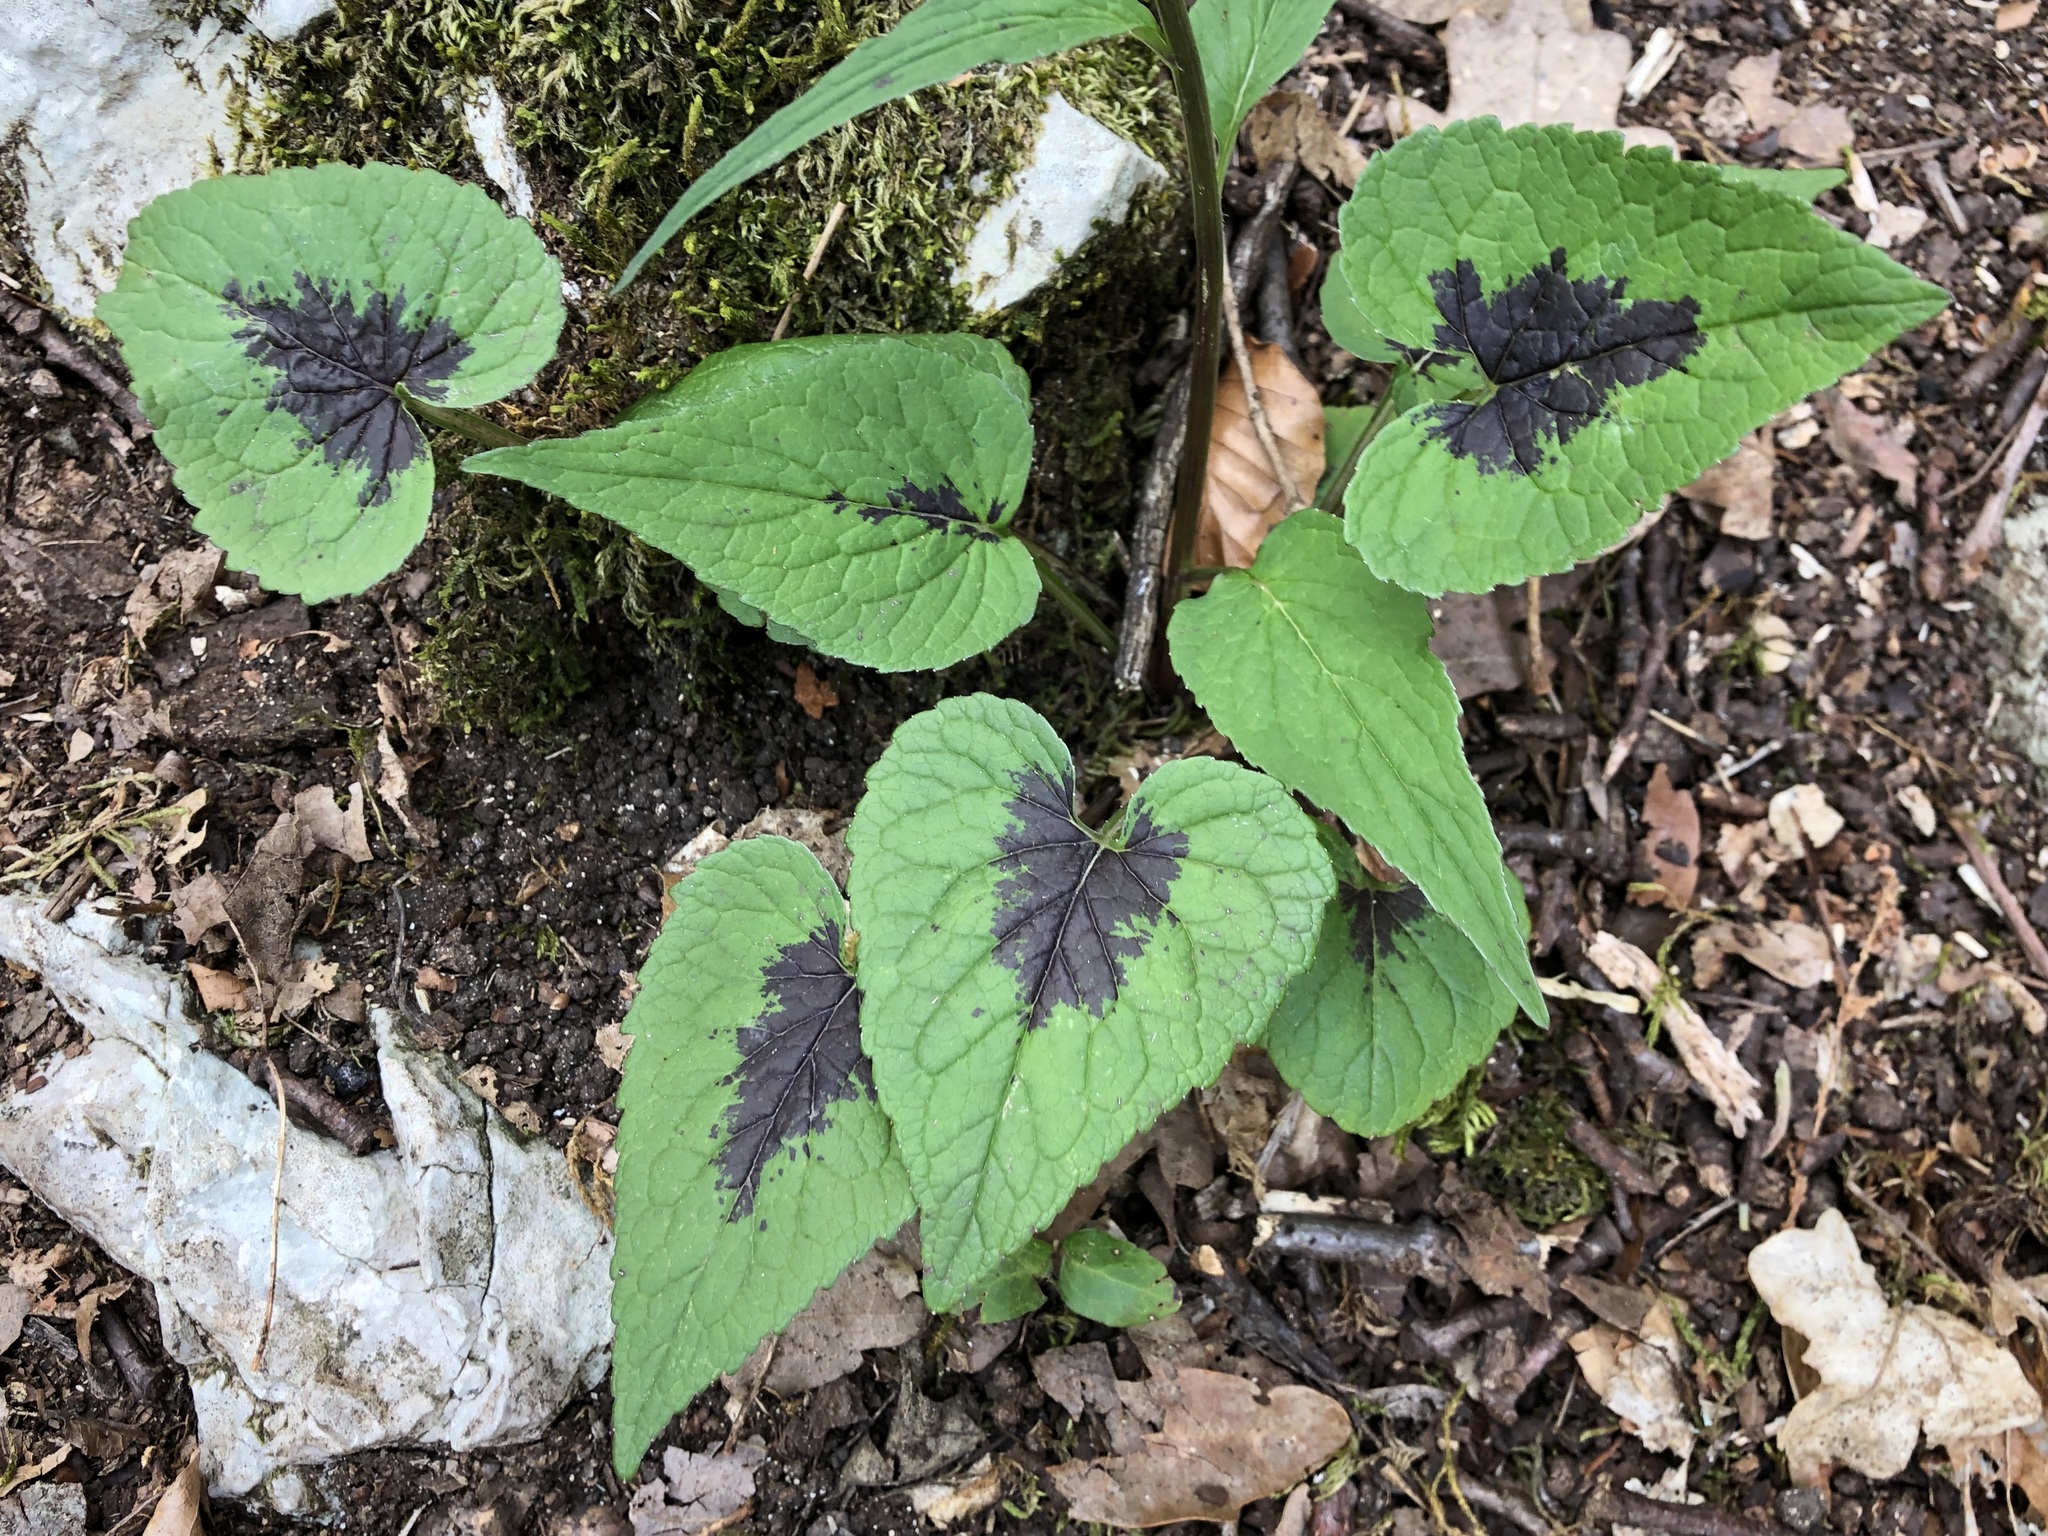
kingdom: Plantae
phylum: Tracheophyta
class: Magnoliopsida
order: Asterales
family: Campanulaceae
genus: Phyteuma
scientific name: Phyteuma spicatum
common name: Spiked rampion
